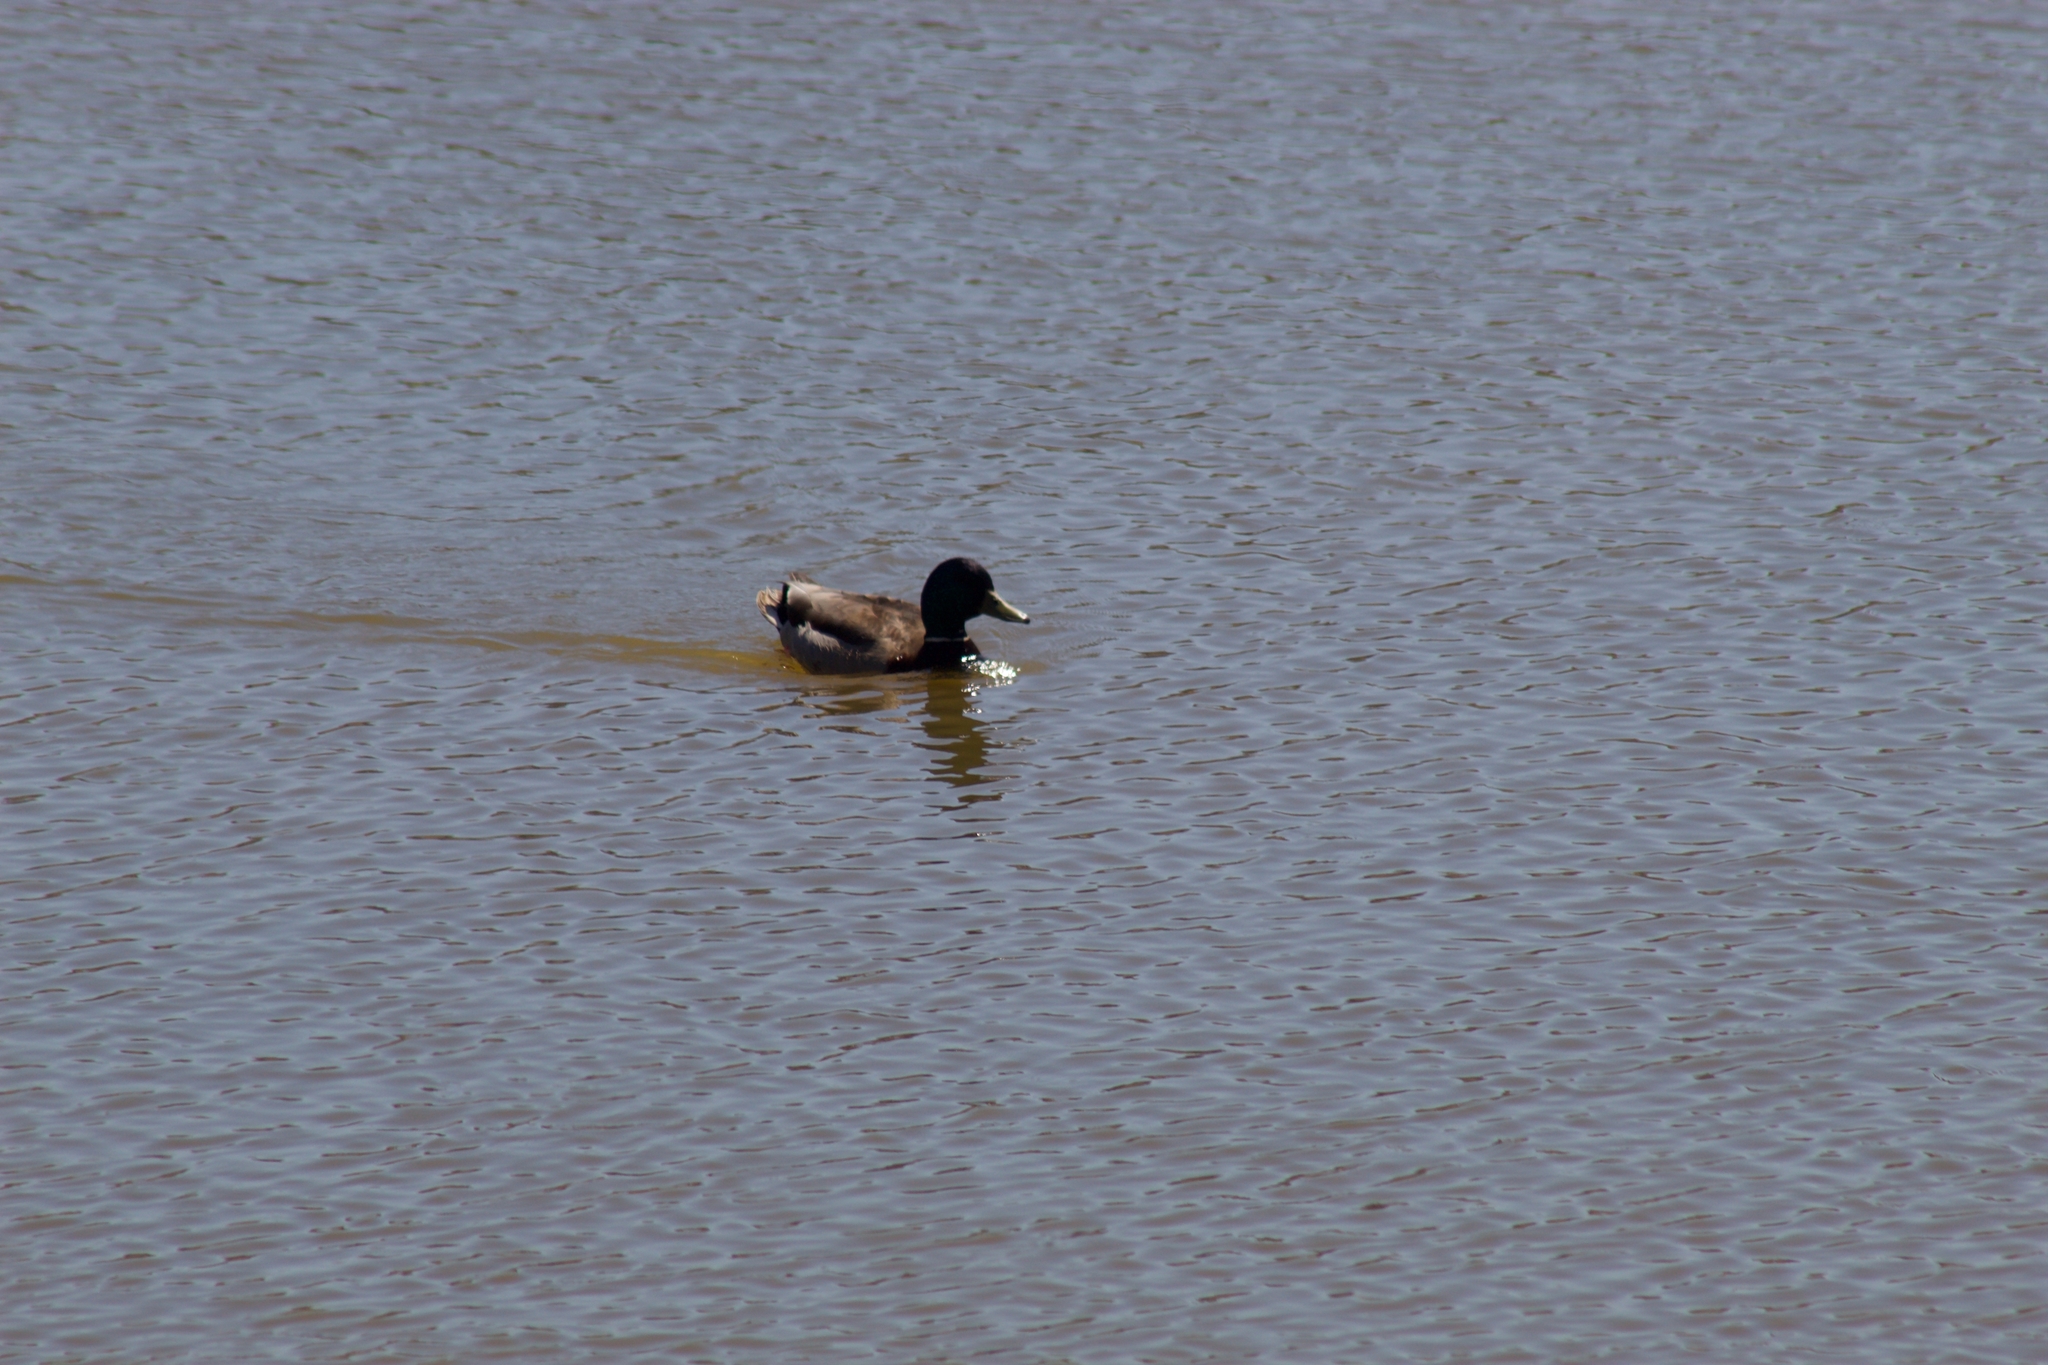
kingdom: Animalia
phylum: Chordata
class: Aves
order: Anseriformes
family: Anatidae
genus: Anas
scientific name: Anas platyrhynchos
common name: Mallard
